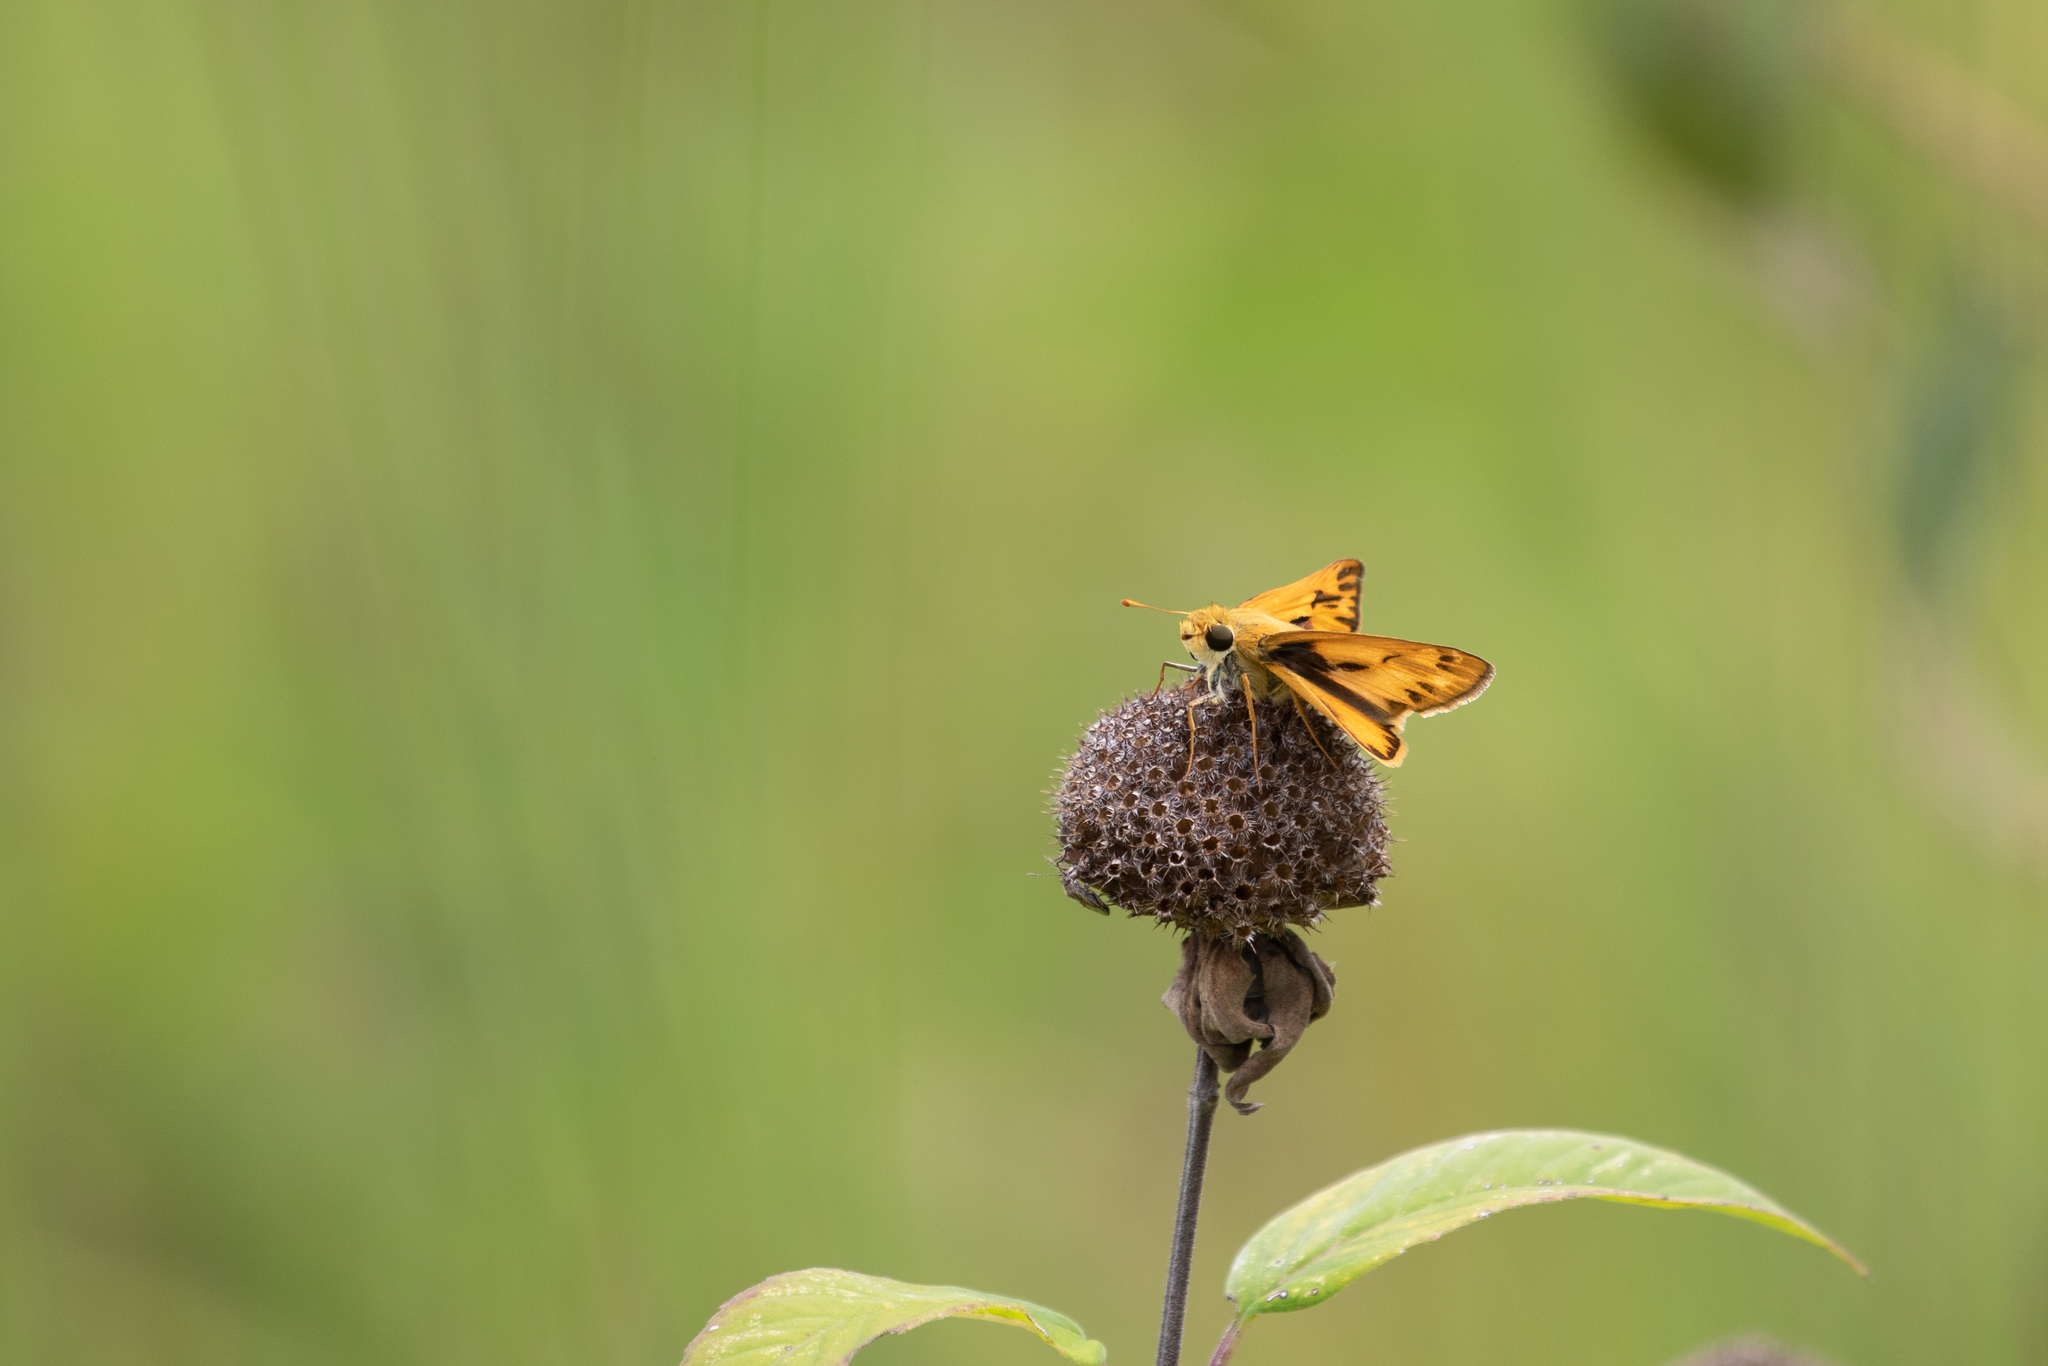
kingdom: Animalia
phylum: Arthropoda
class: Insecta
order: Lepidoptera
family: Hesperiidae
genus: Hylephila
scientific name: Hylephila phyleus
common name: Fiery skipper
